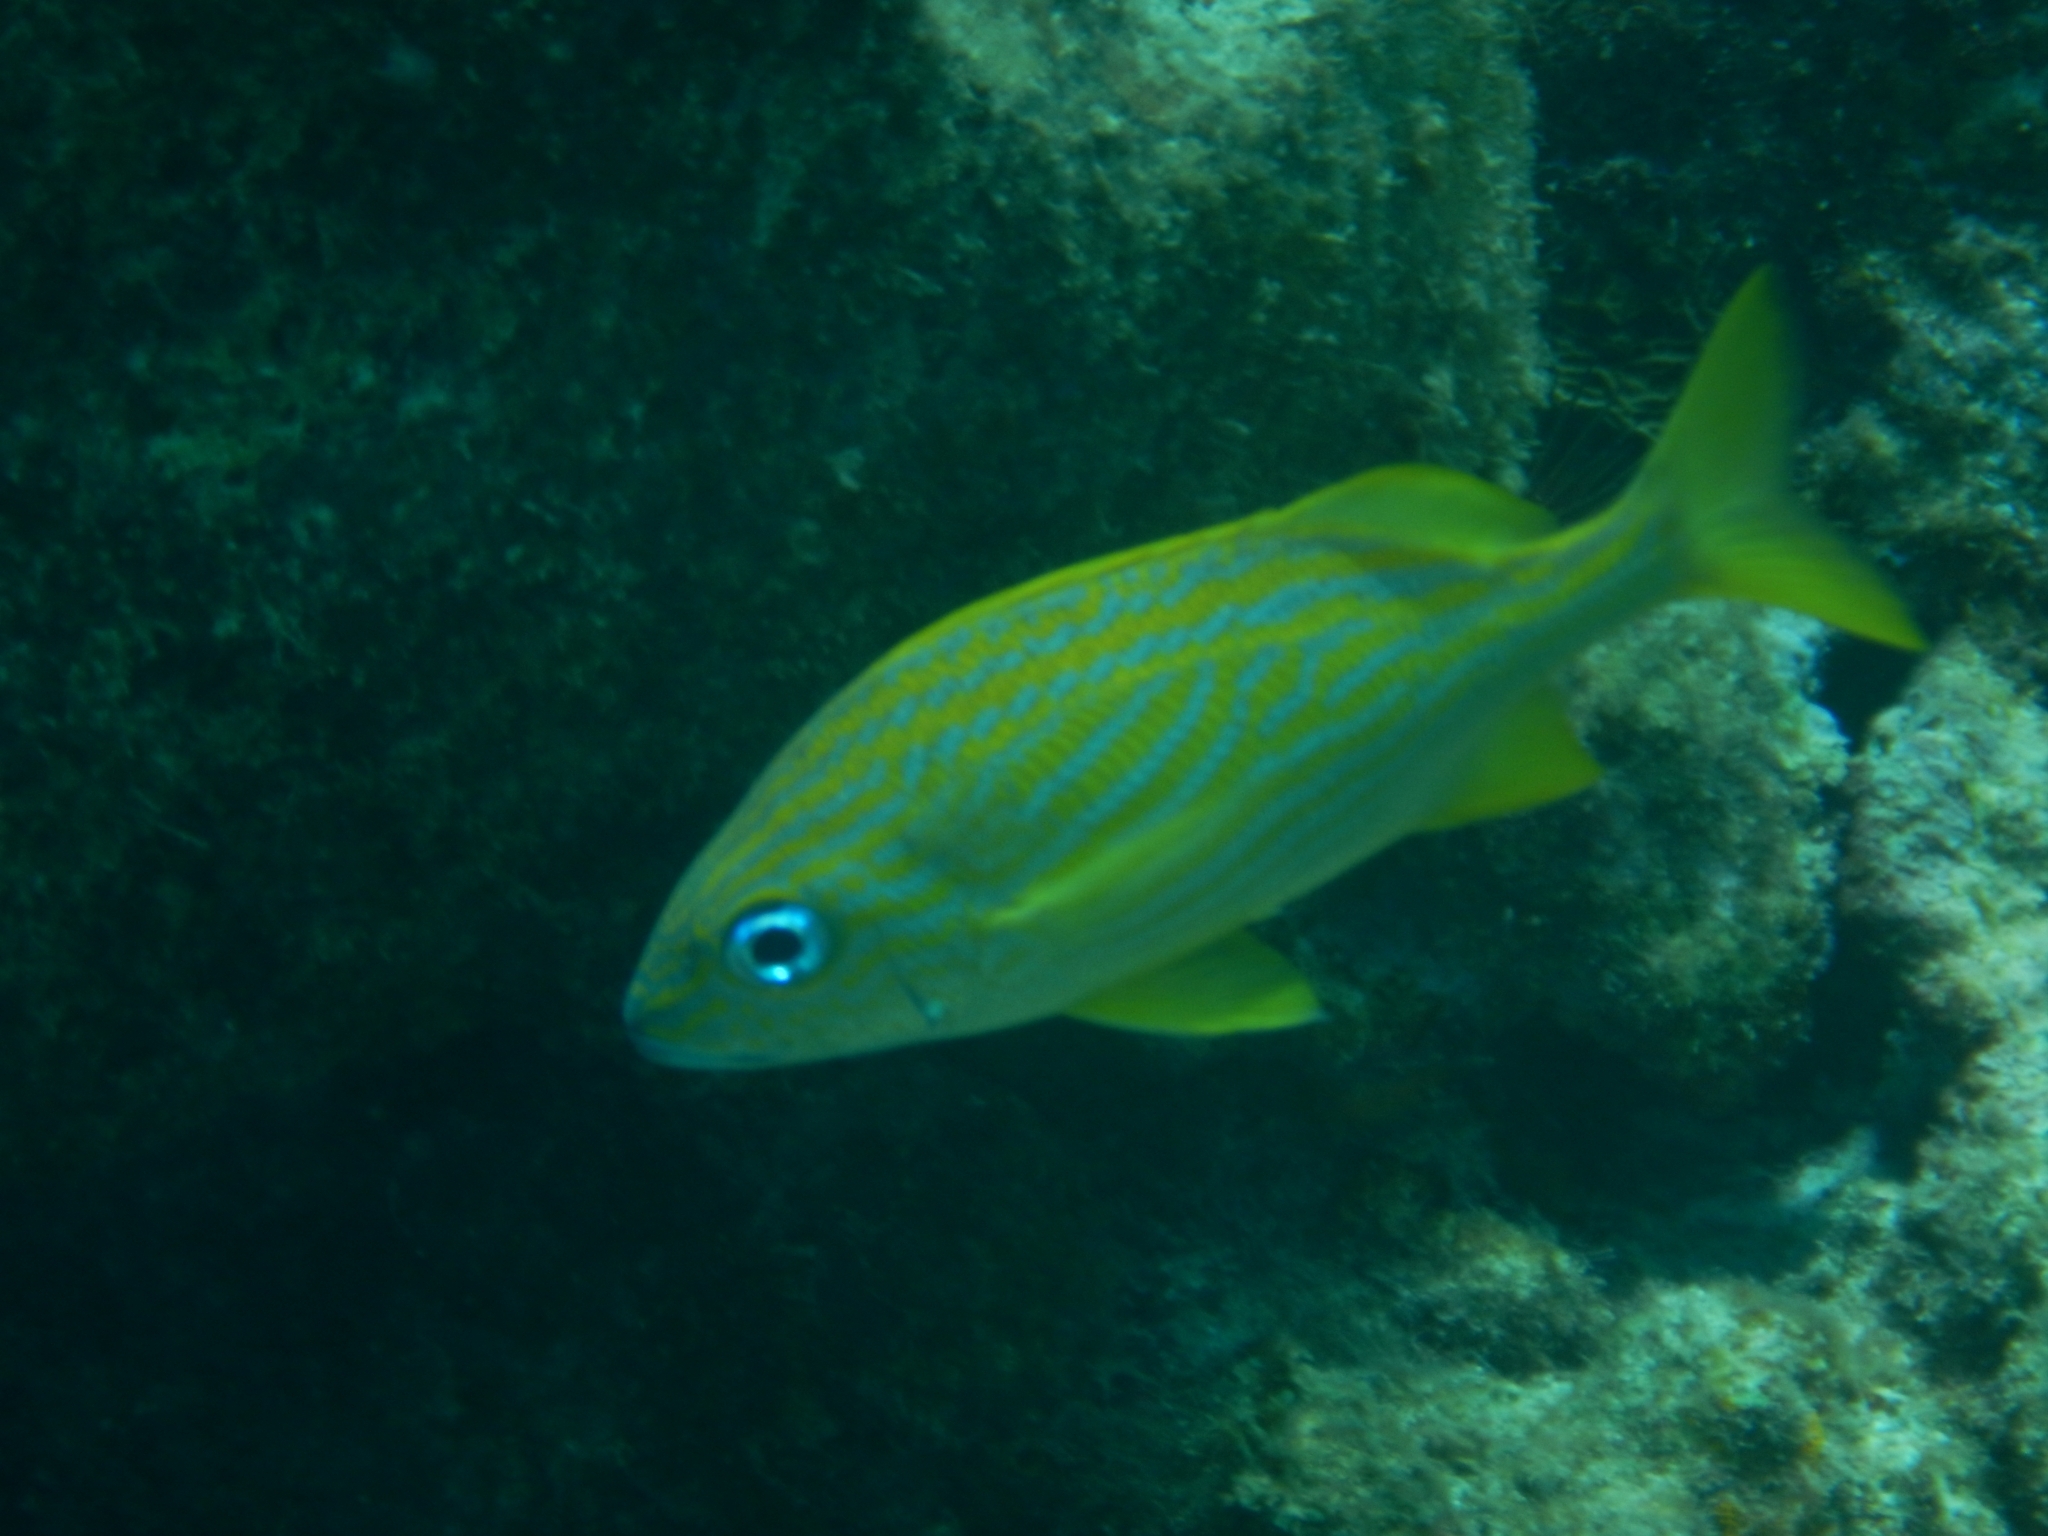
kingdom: Animalia
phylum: Chordata
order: Perciformes
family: Haemulidae
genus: Haemulon
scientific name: Haemulon flavolineatum
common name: French grunt
